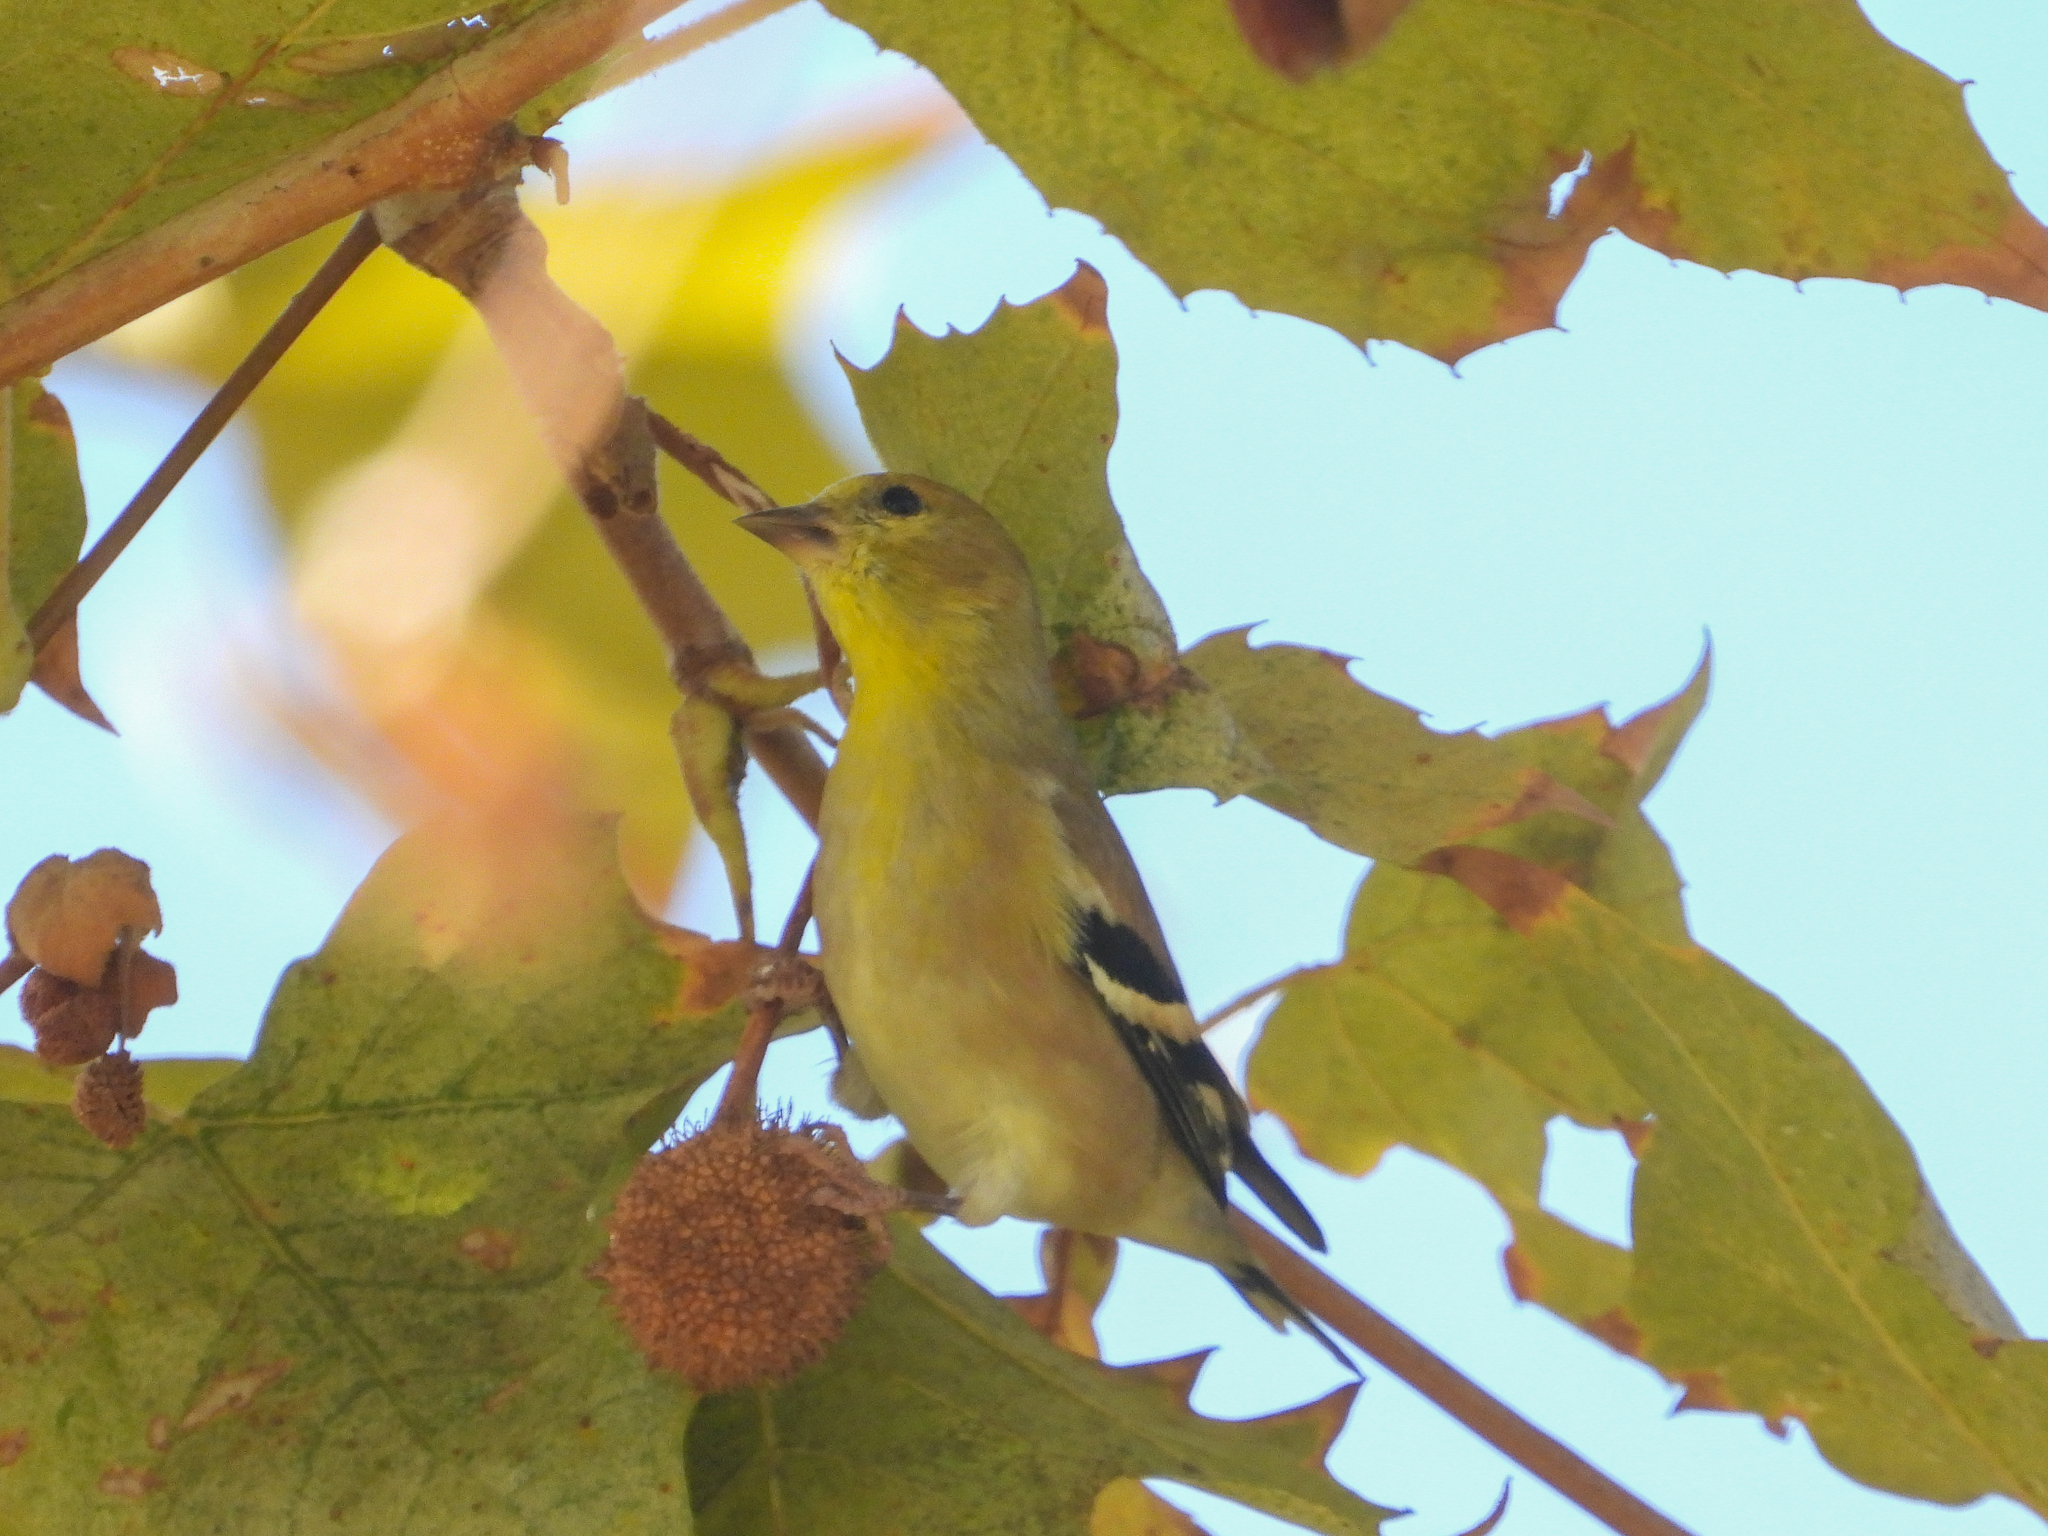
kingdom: Animalia
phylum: Chordata
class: Aves
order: Passeriformes
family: Fringillidae
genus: Spinus
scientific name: Spinus tristis
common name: American goldfinch
